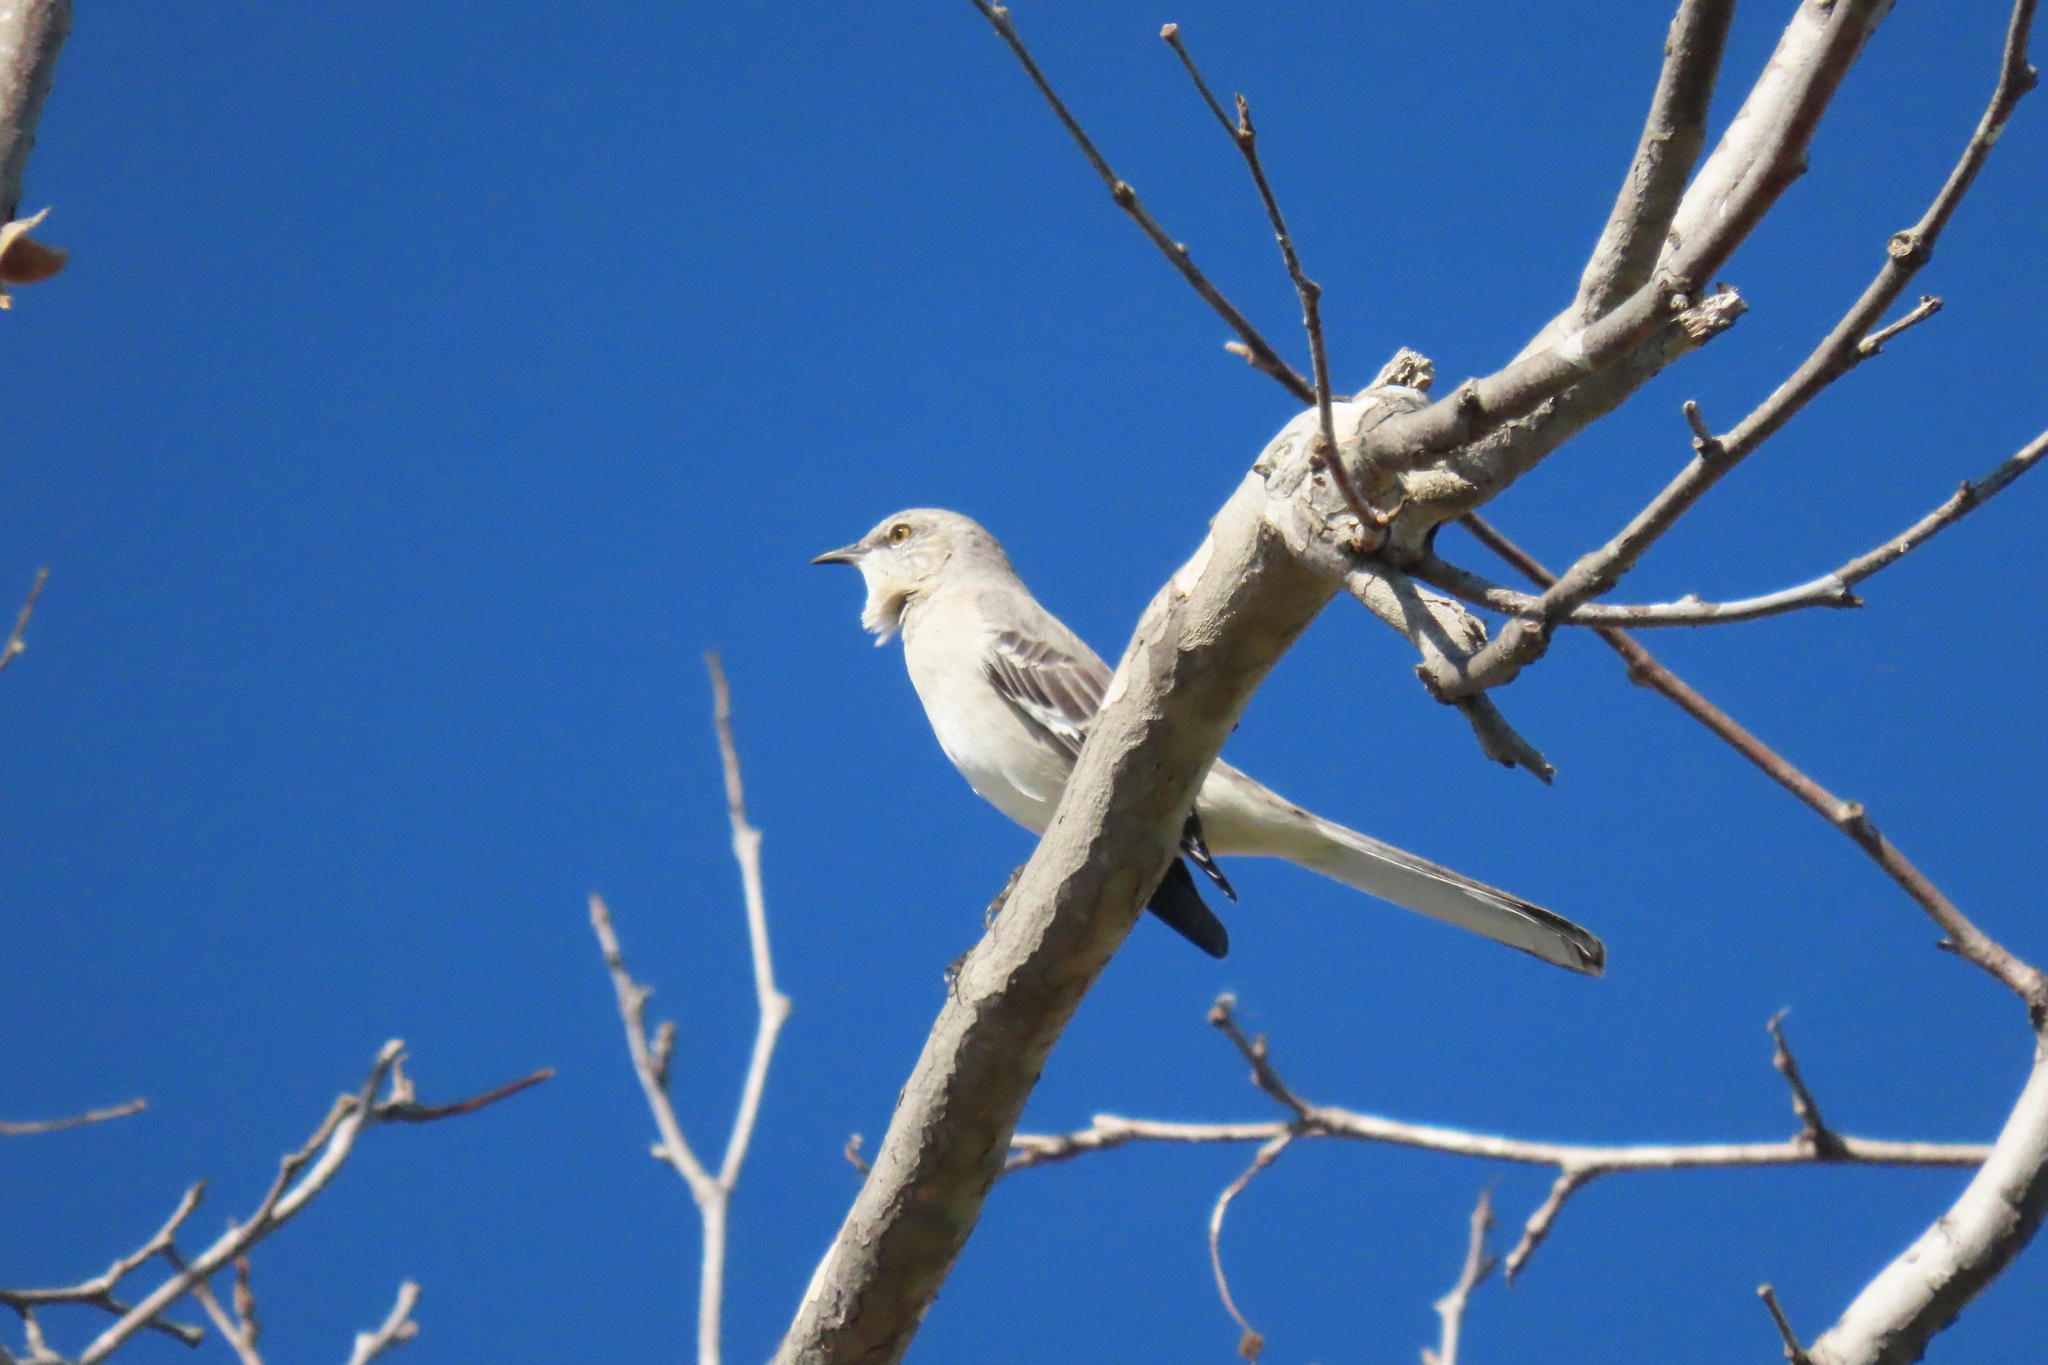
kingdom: Animalia
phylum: Chordata
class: Aves
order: Passeriformes
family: Mimidae
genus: Mimus
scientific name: Mimus polyglottos
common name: Northern mockingbird
